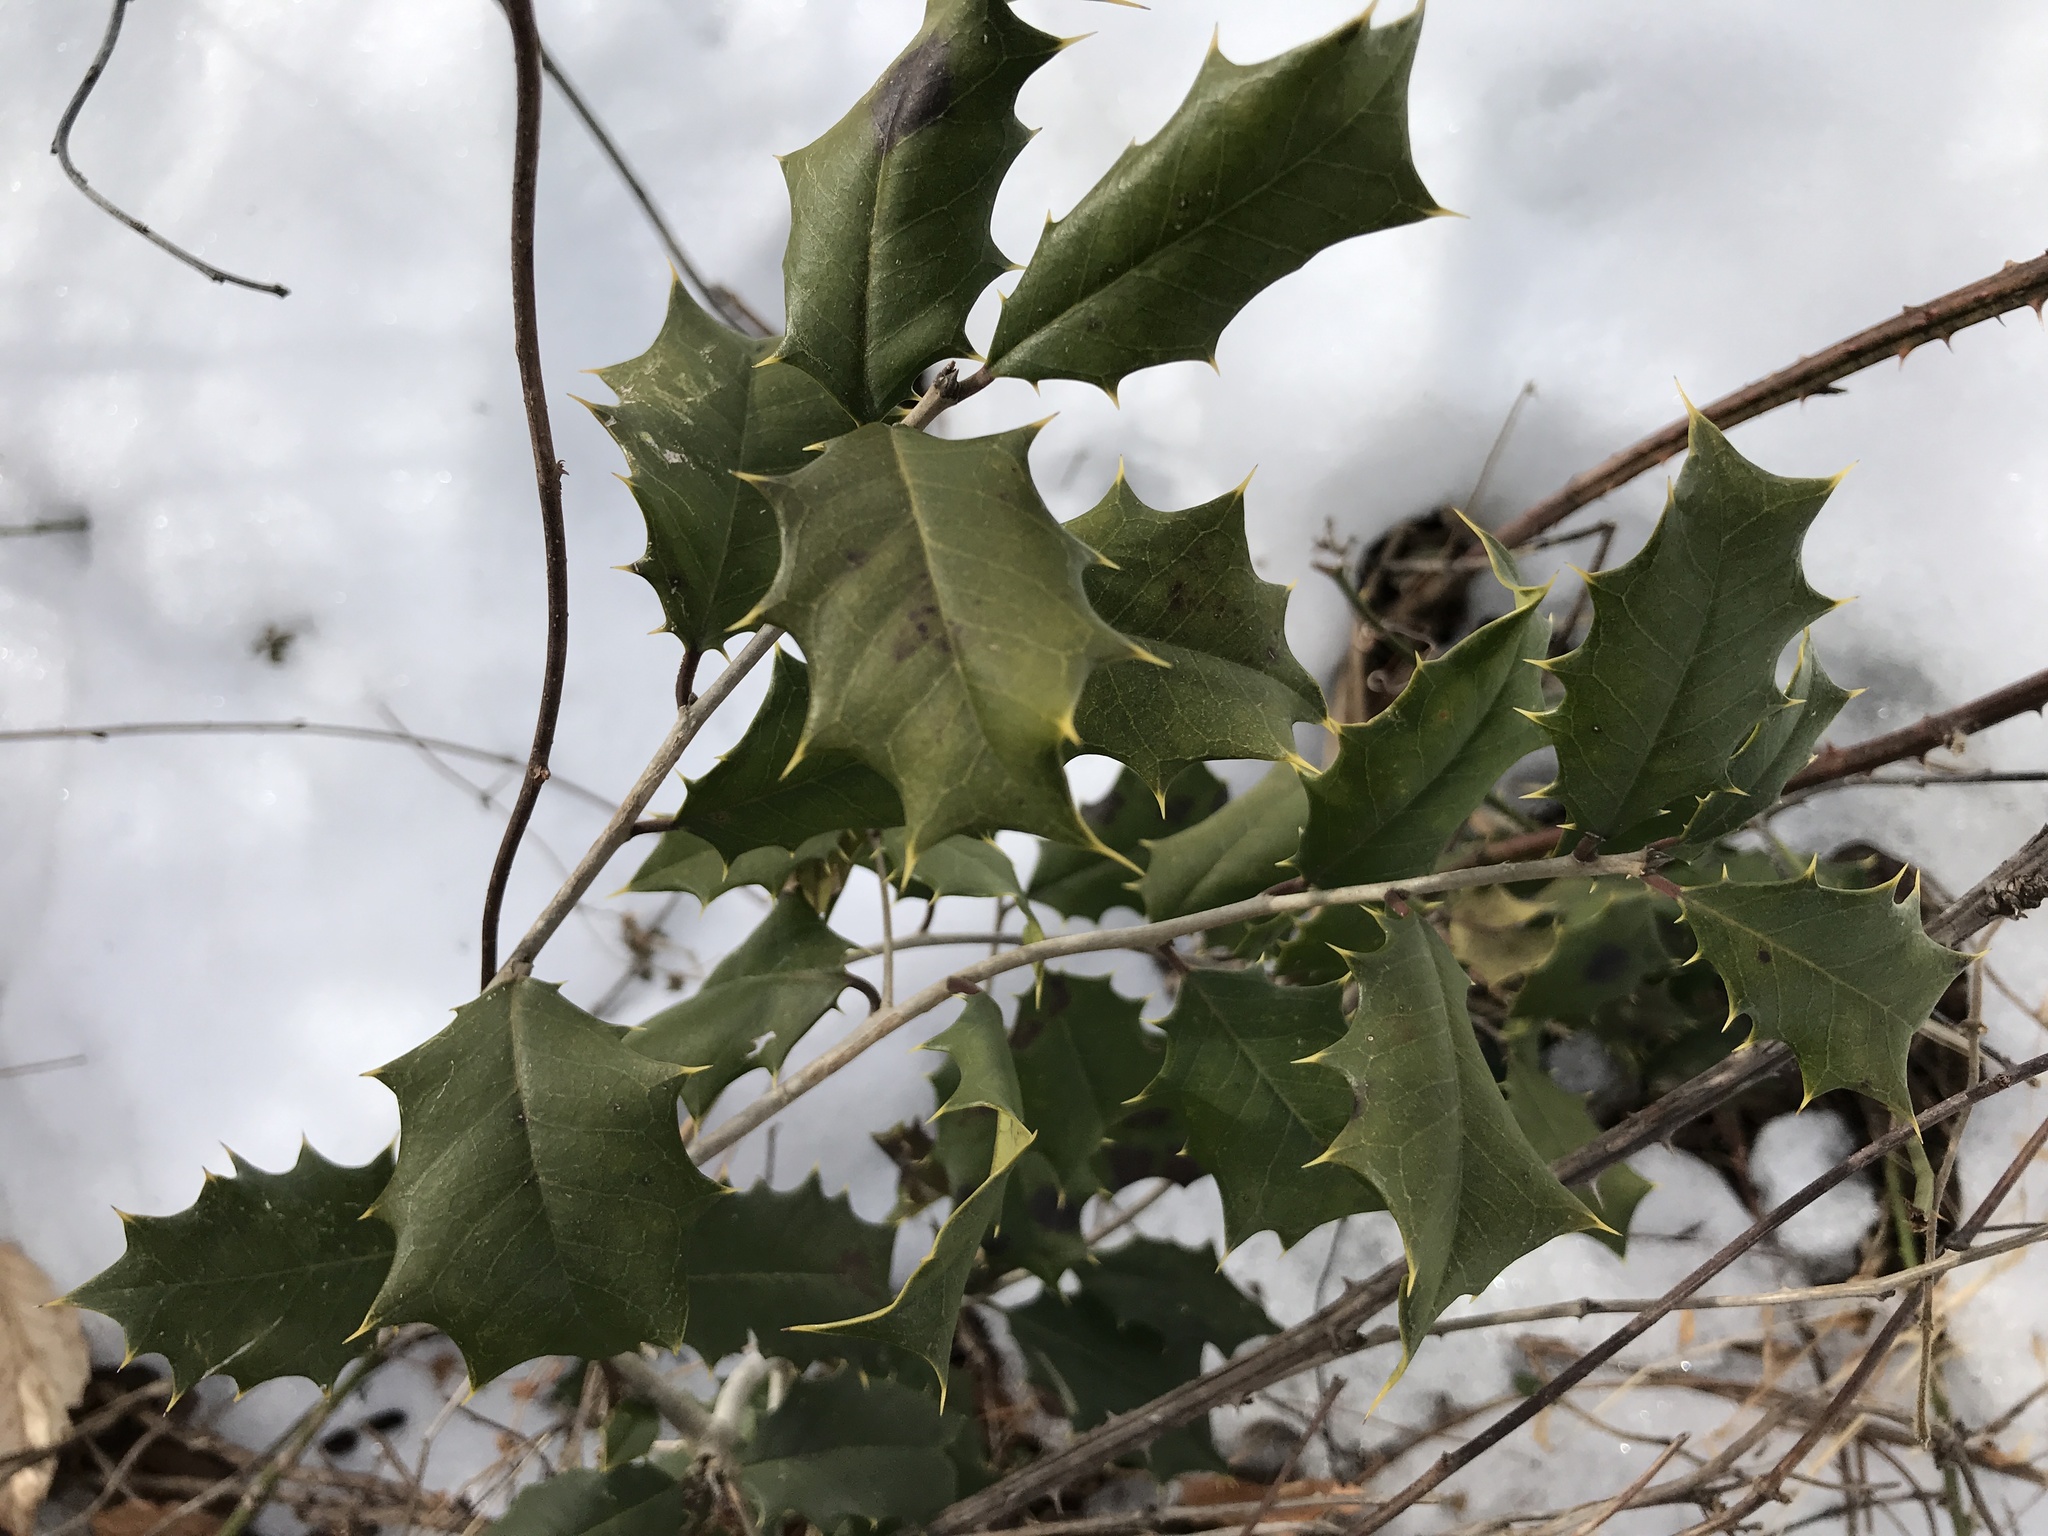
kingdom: Plantae
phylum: Tracheophyta
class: Magnoliopsida
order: Aquifoliales
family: Aquifoliaceae
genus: Ilex
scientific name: Ilex opaca
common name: American holly
